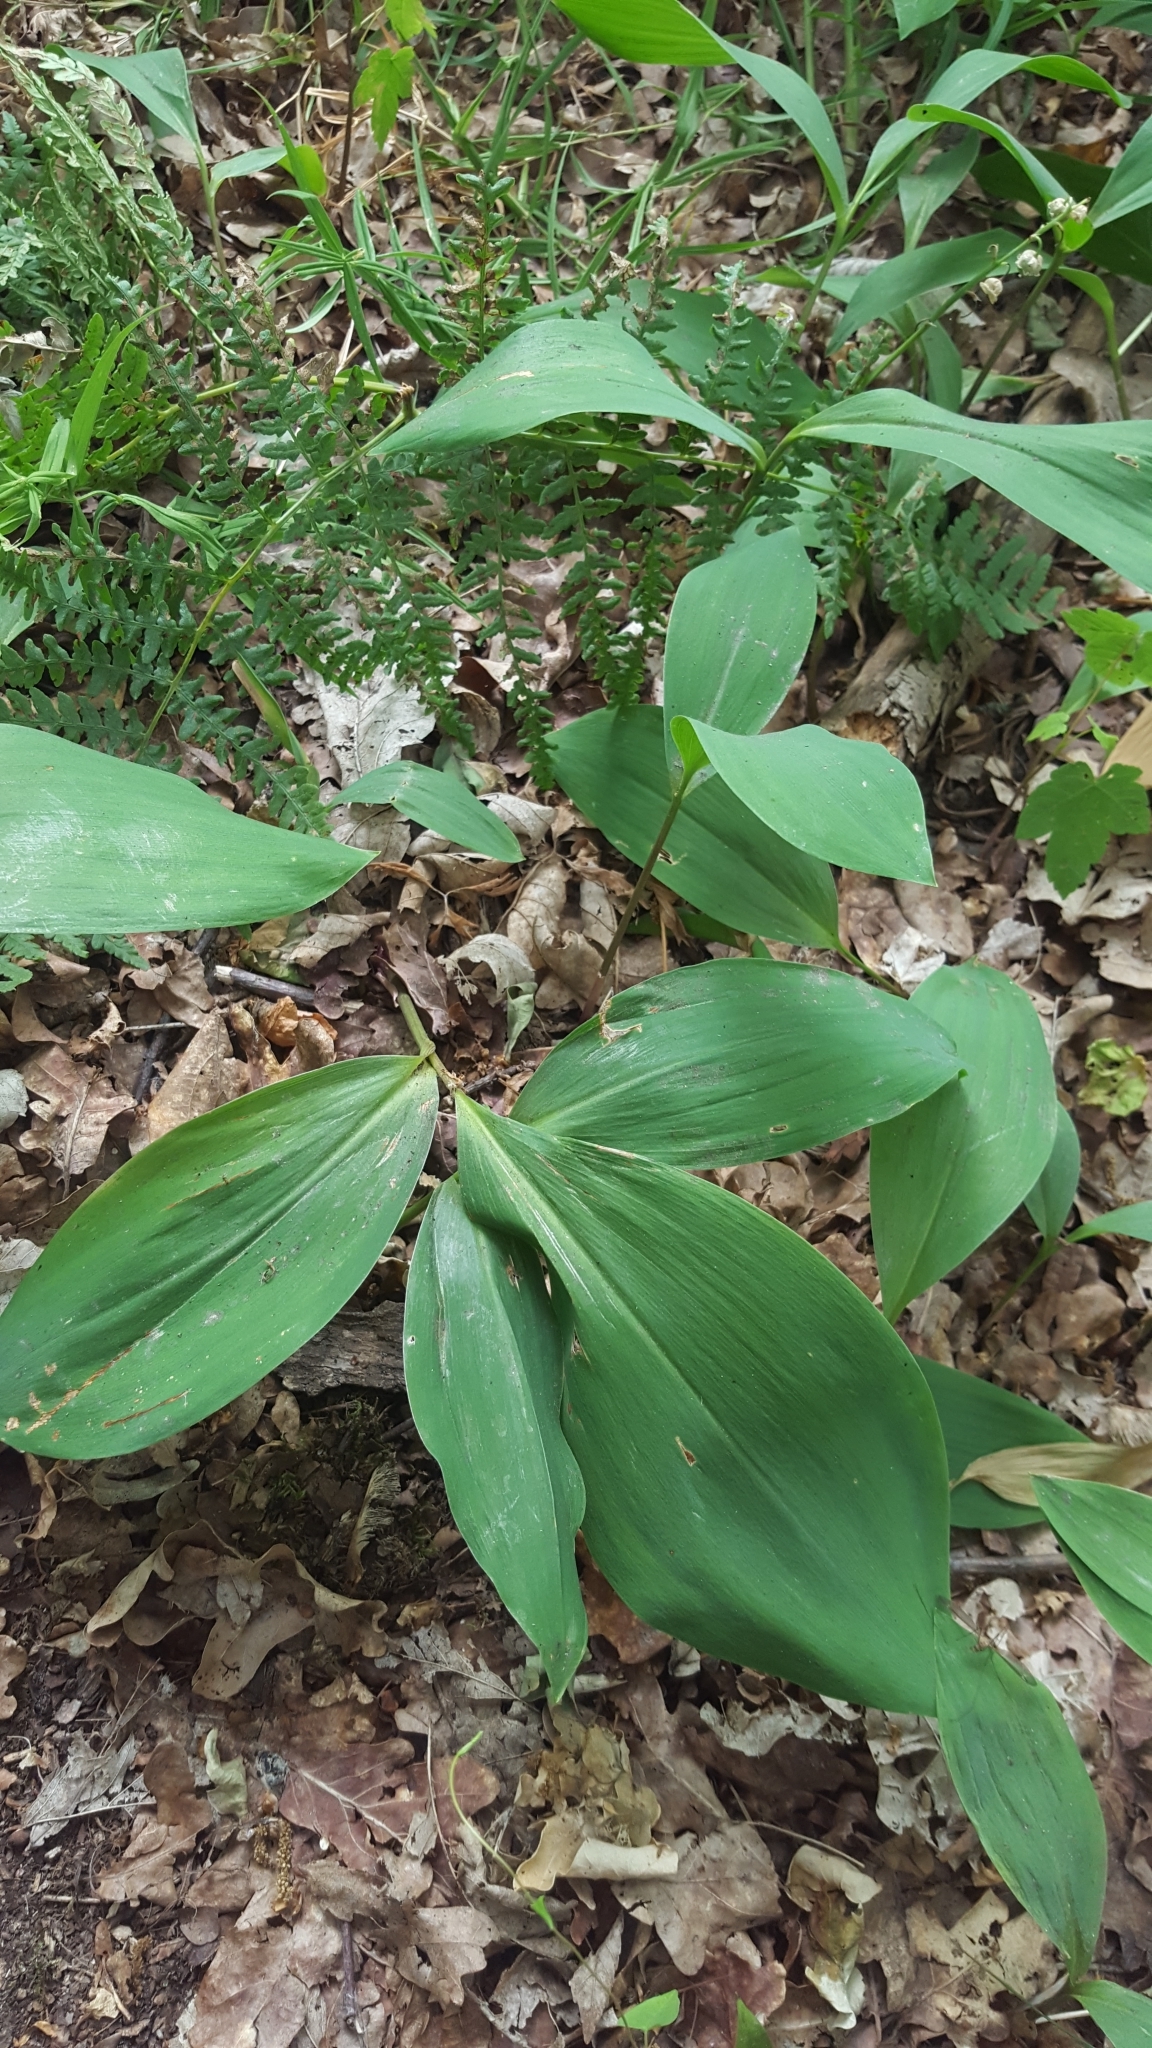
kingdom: Plantae
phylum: Tracheophyta
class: Liliopsida
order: Asparagales
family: Asparagaceae
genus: Convallaria
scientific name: Convallaria majalis
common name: Lily-of-the-valley
